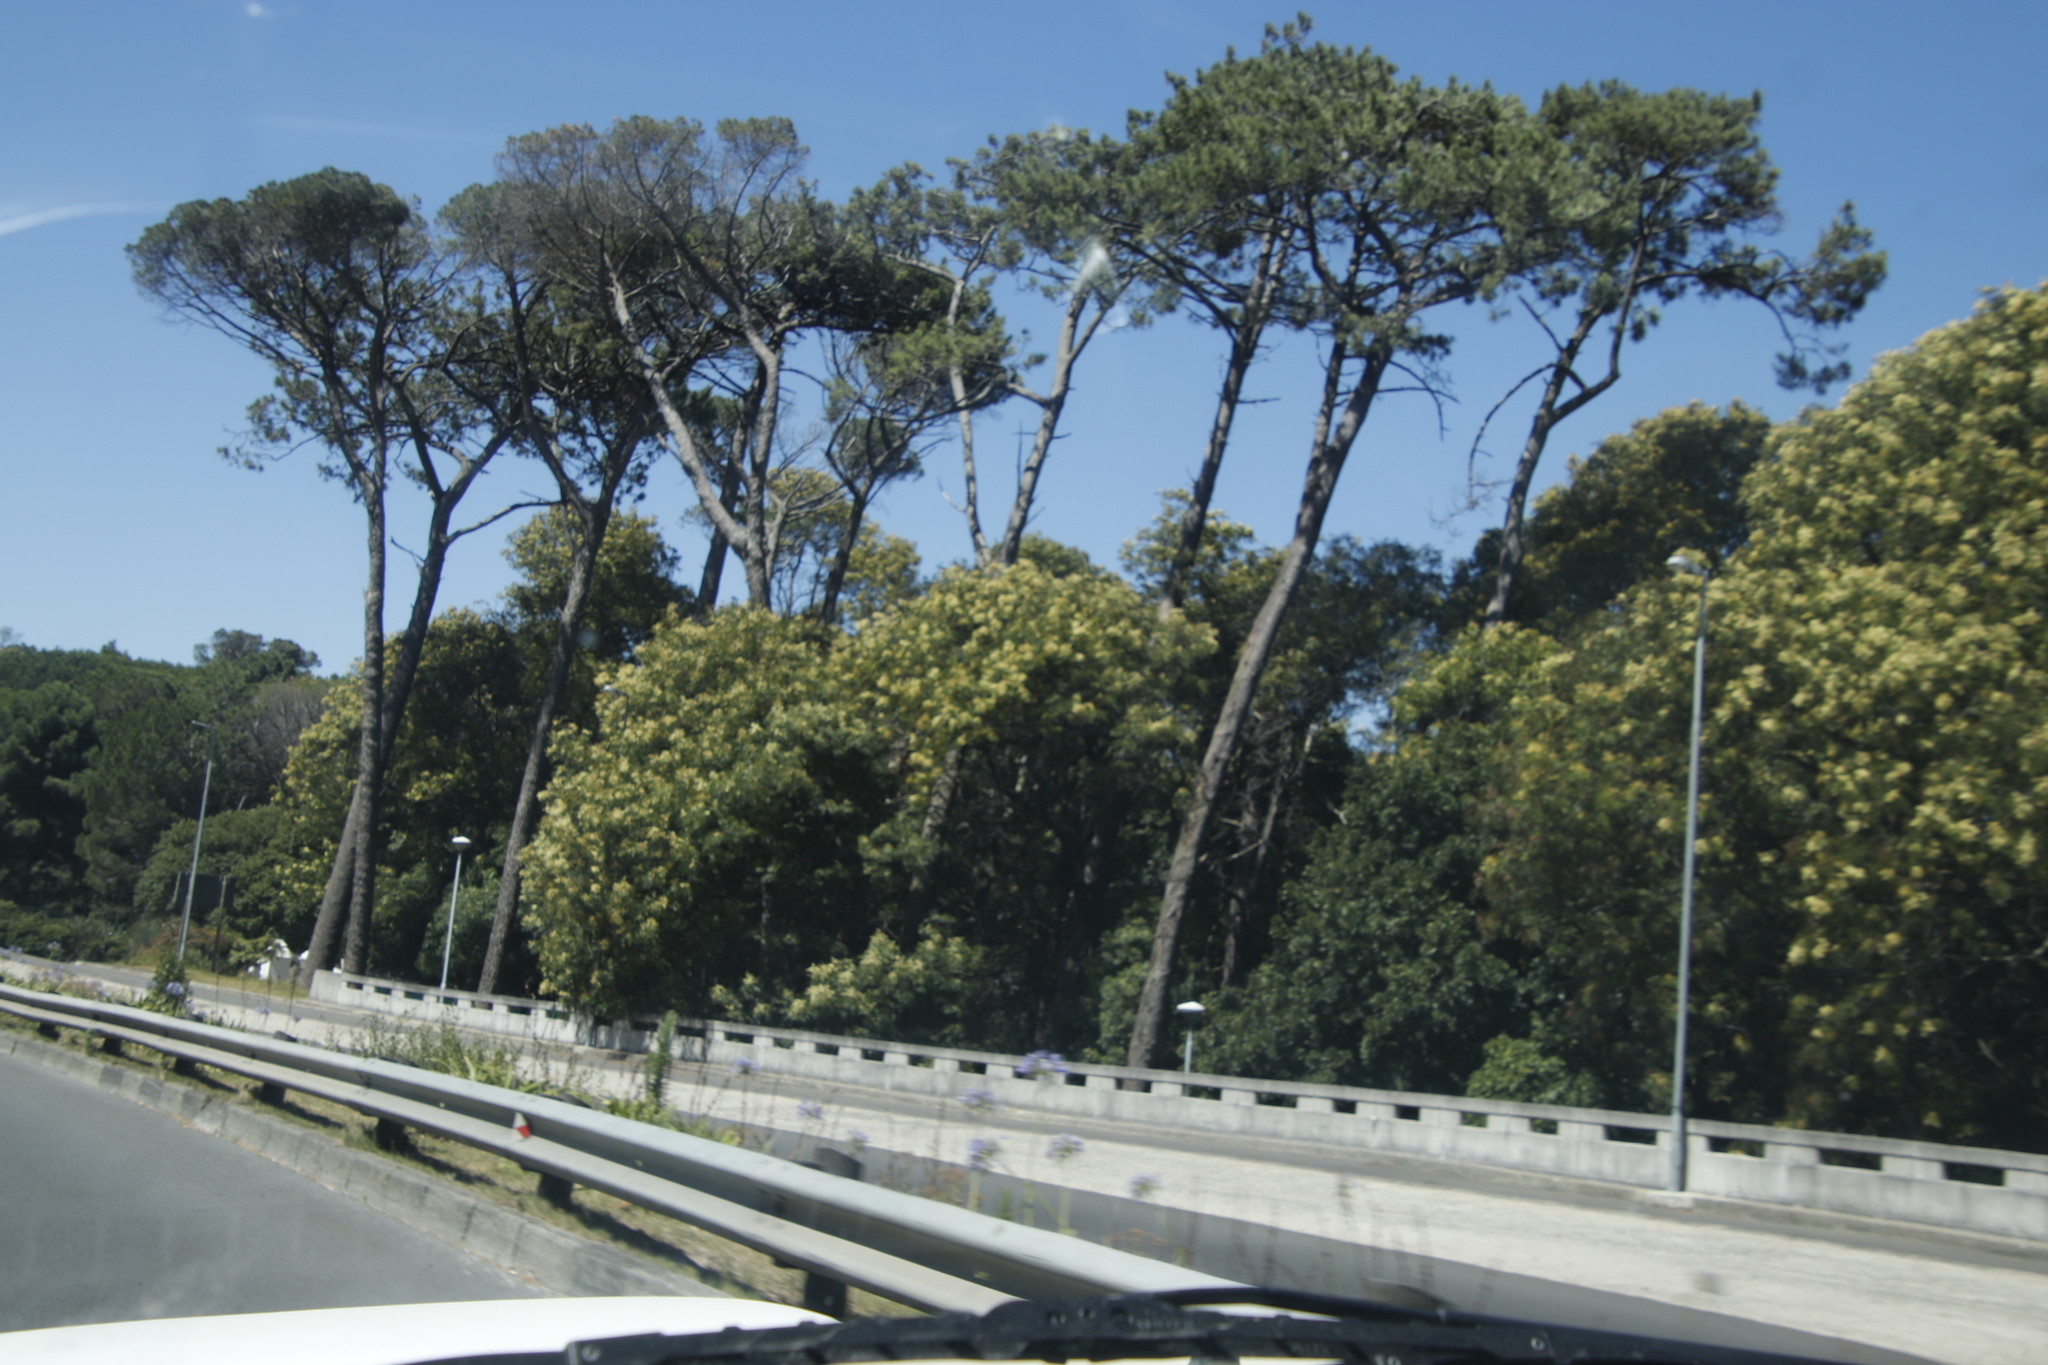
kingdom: Plantae
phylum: Tracheophyta
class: Pinopsida
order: Pinales
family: Pinaceae
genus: Pinus
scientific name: Pinus pinaster
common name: Maritime pine
